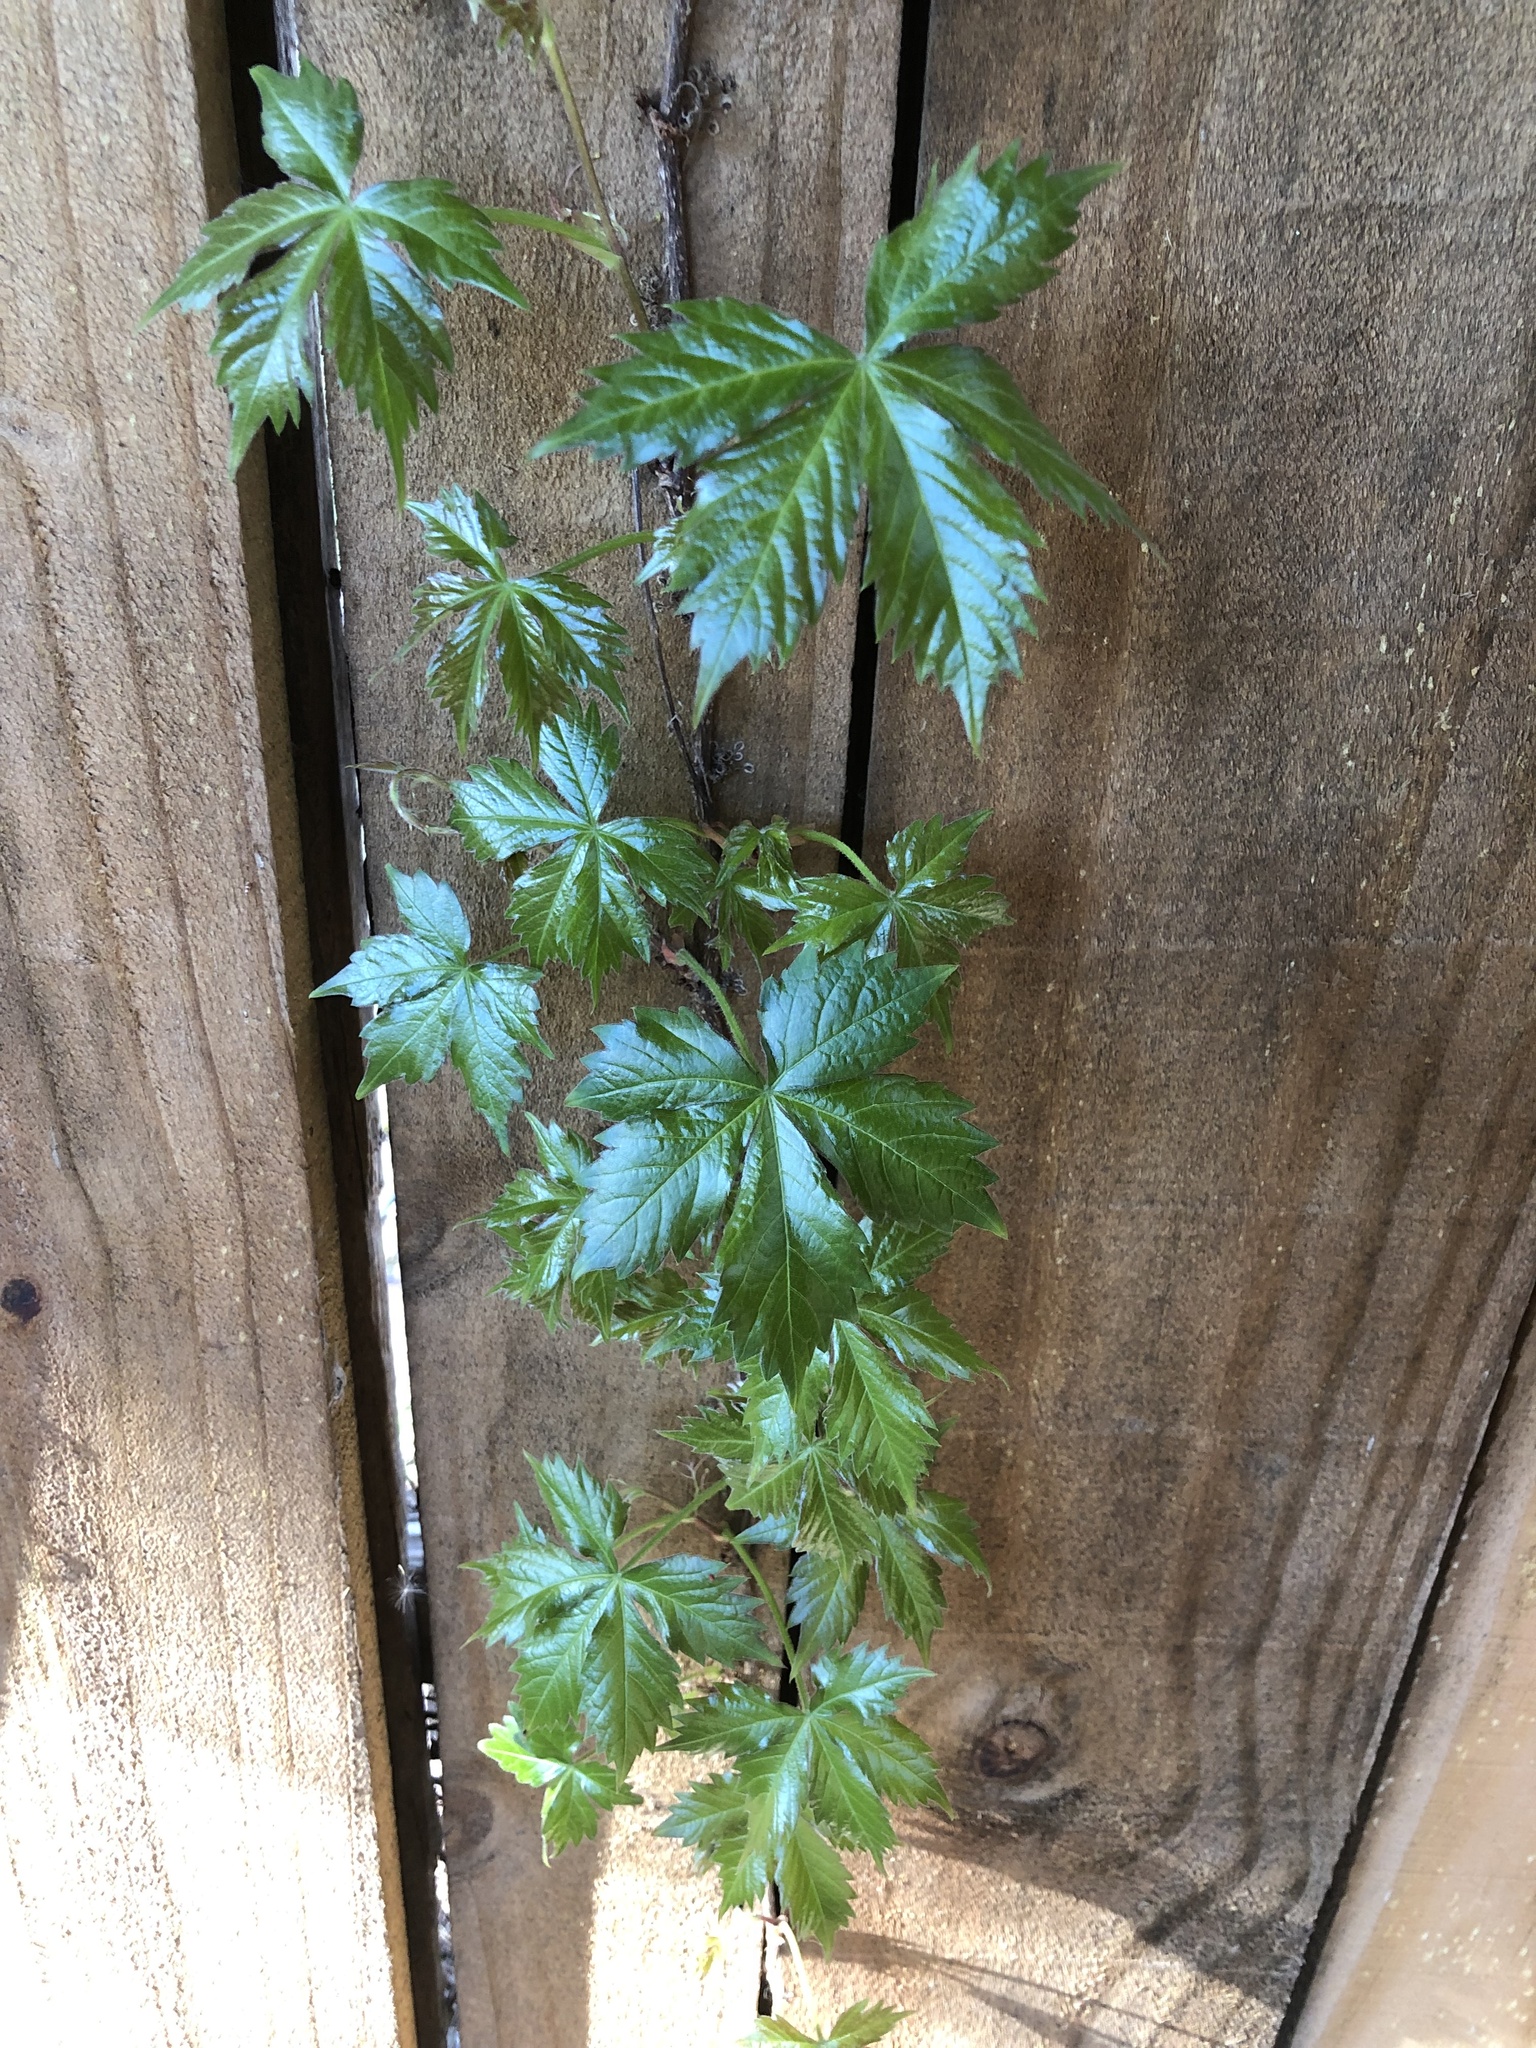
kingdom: Plantae
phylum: Tracheophyta
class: Magnoliopsida
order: Vitales
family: Vitaceae
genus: Parthenocissus
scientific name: Parthenocissus quinquefolia
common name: Virginia-creeper
